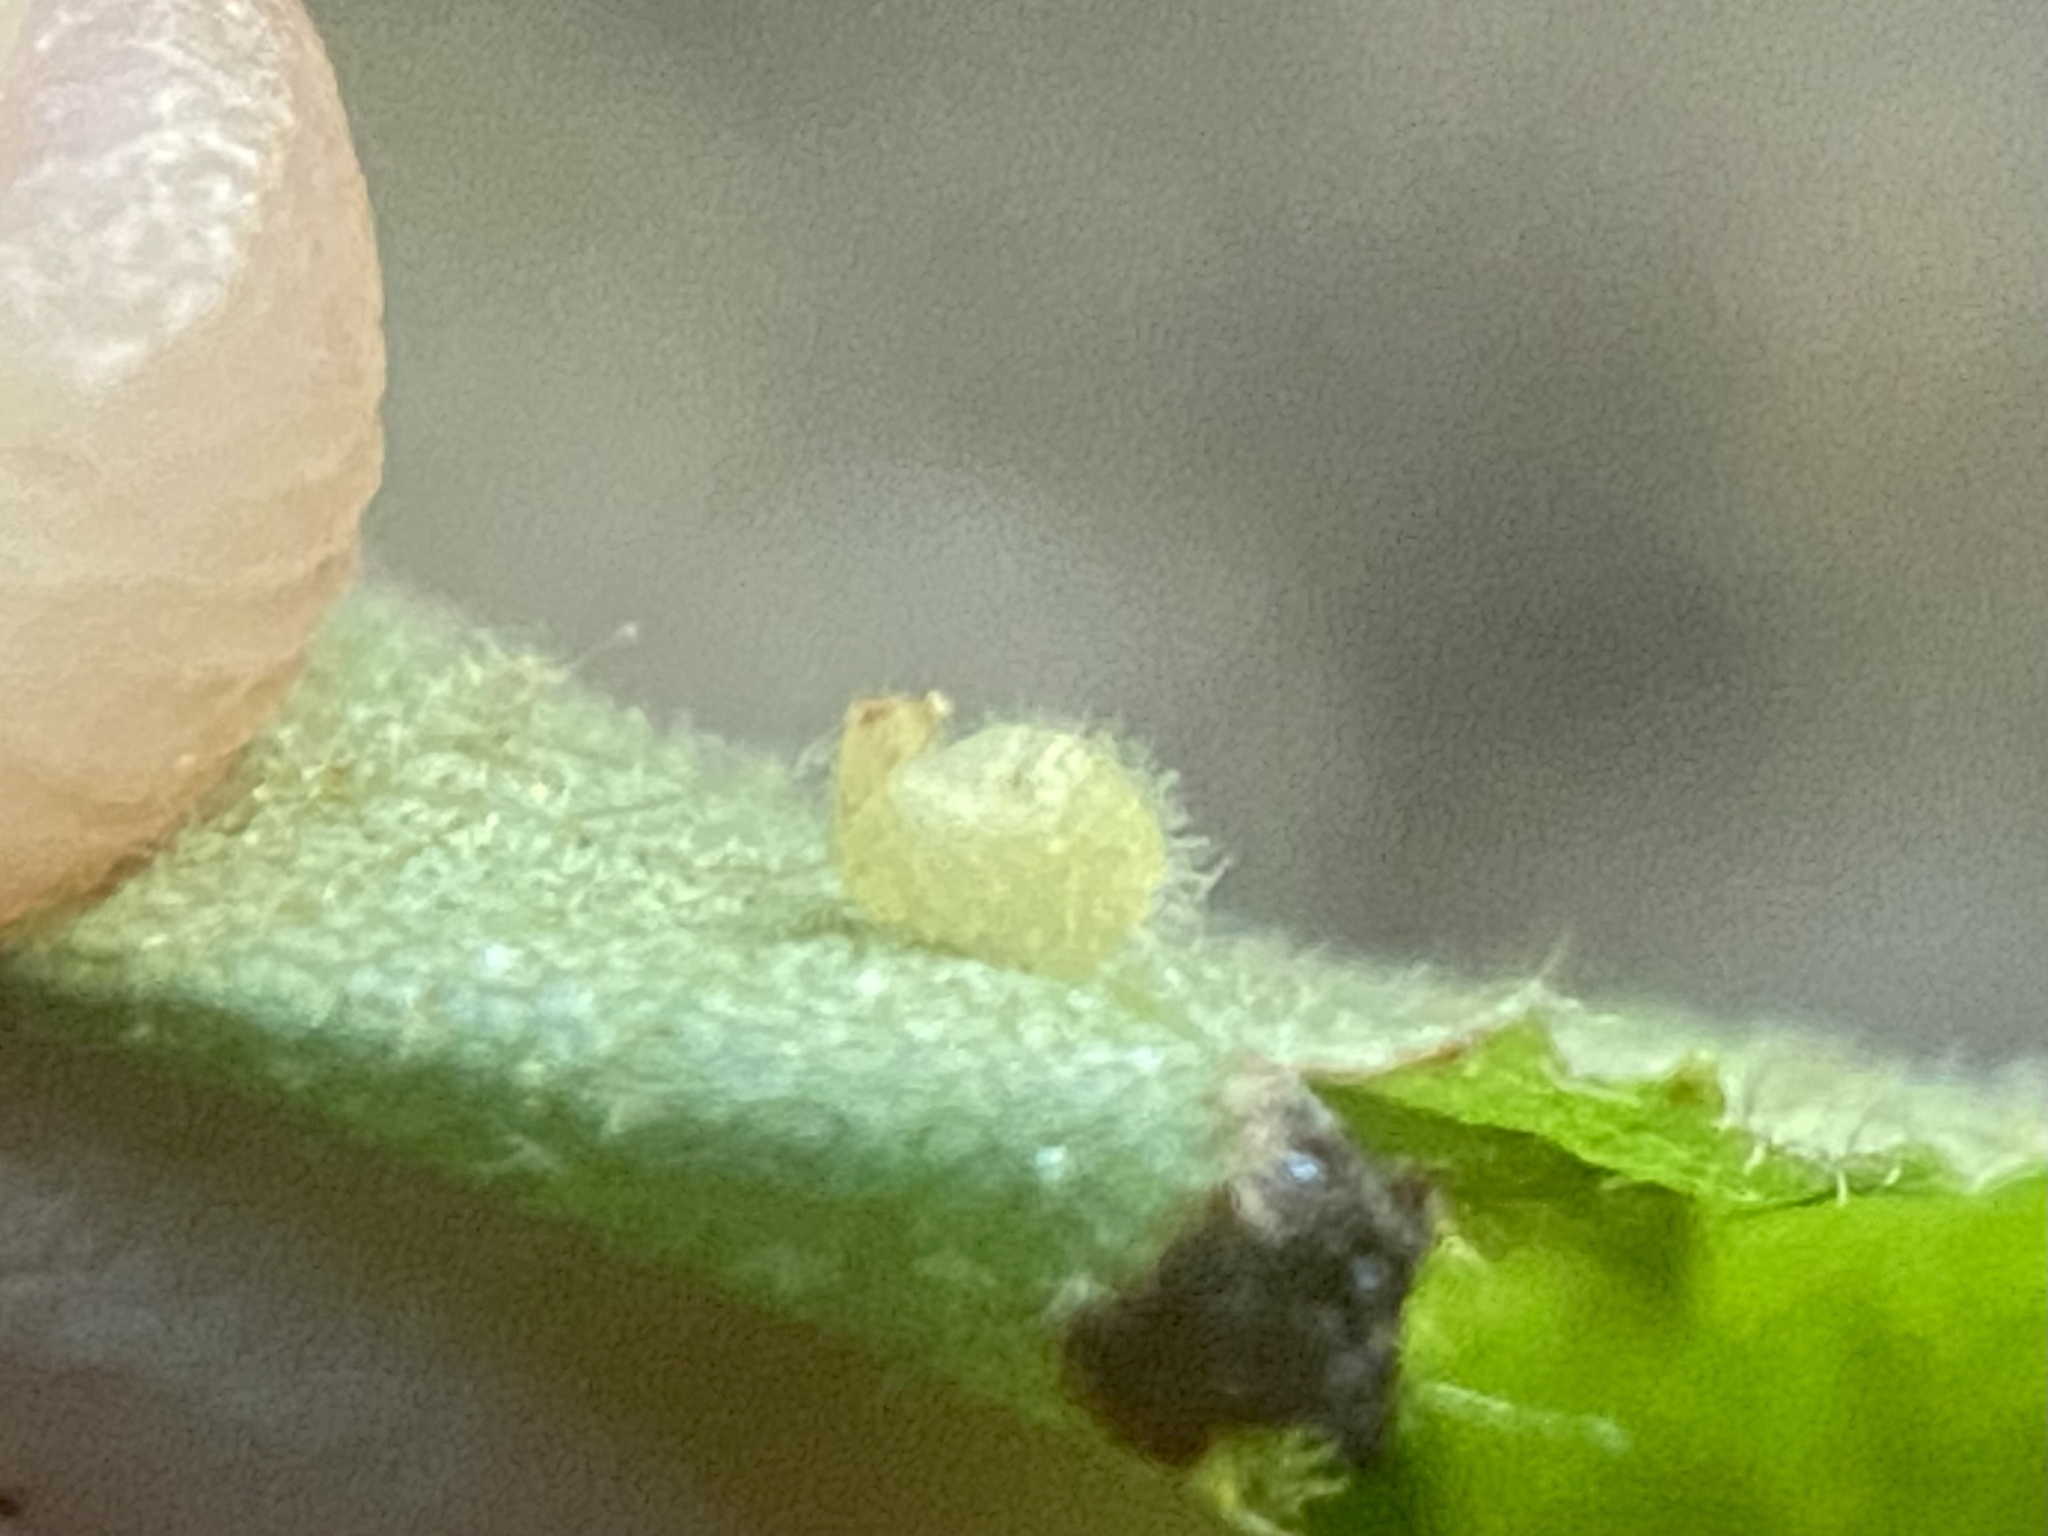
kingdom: Animalia
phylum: Arthropoda
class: Insecta
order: Diptera
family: Cecidomyiidae
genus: Caryomyia
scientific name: Caryomyia eumaris
